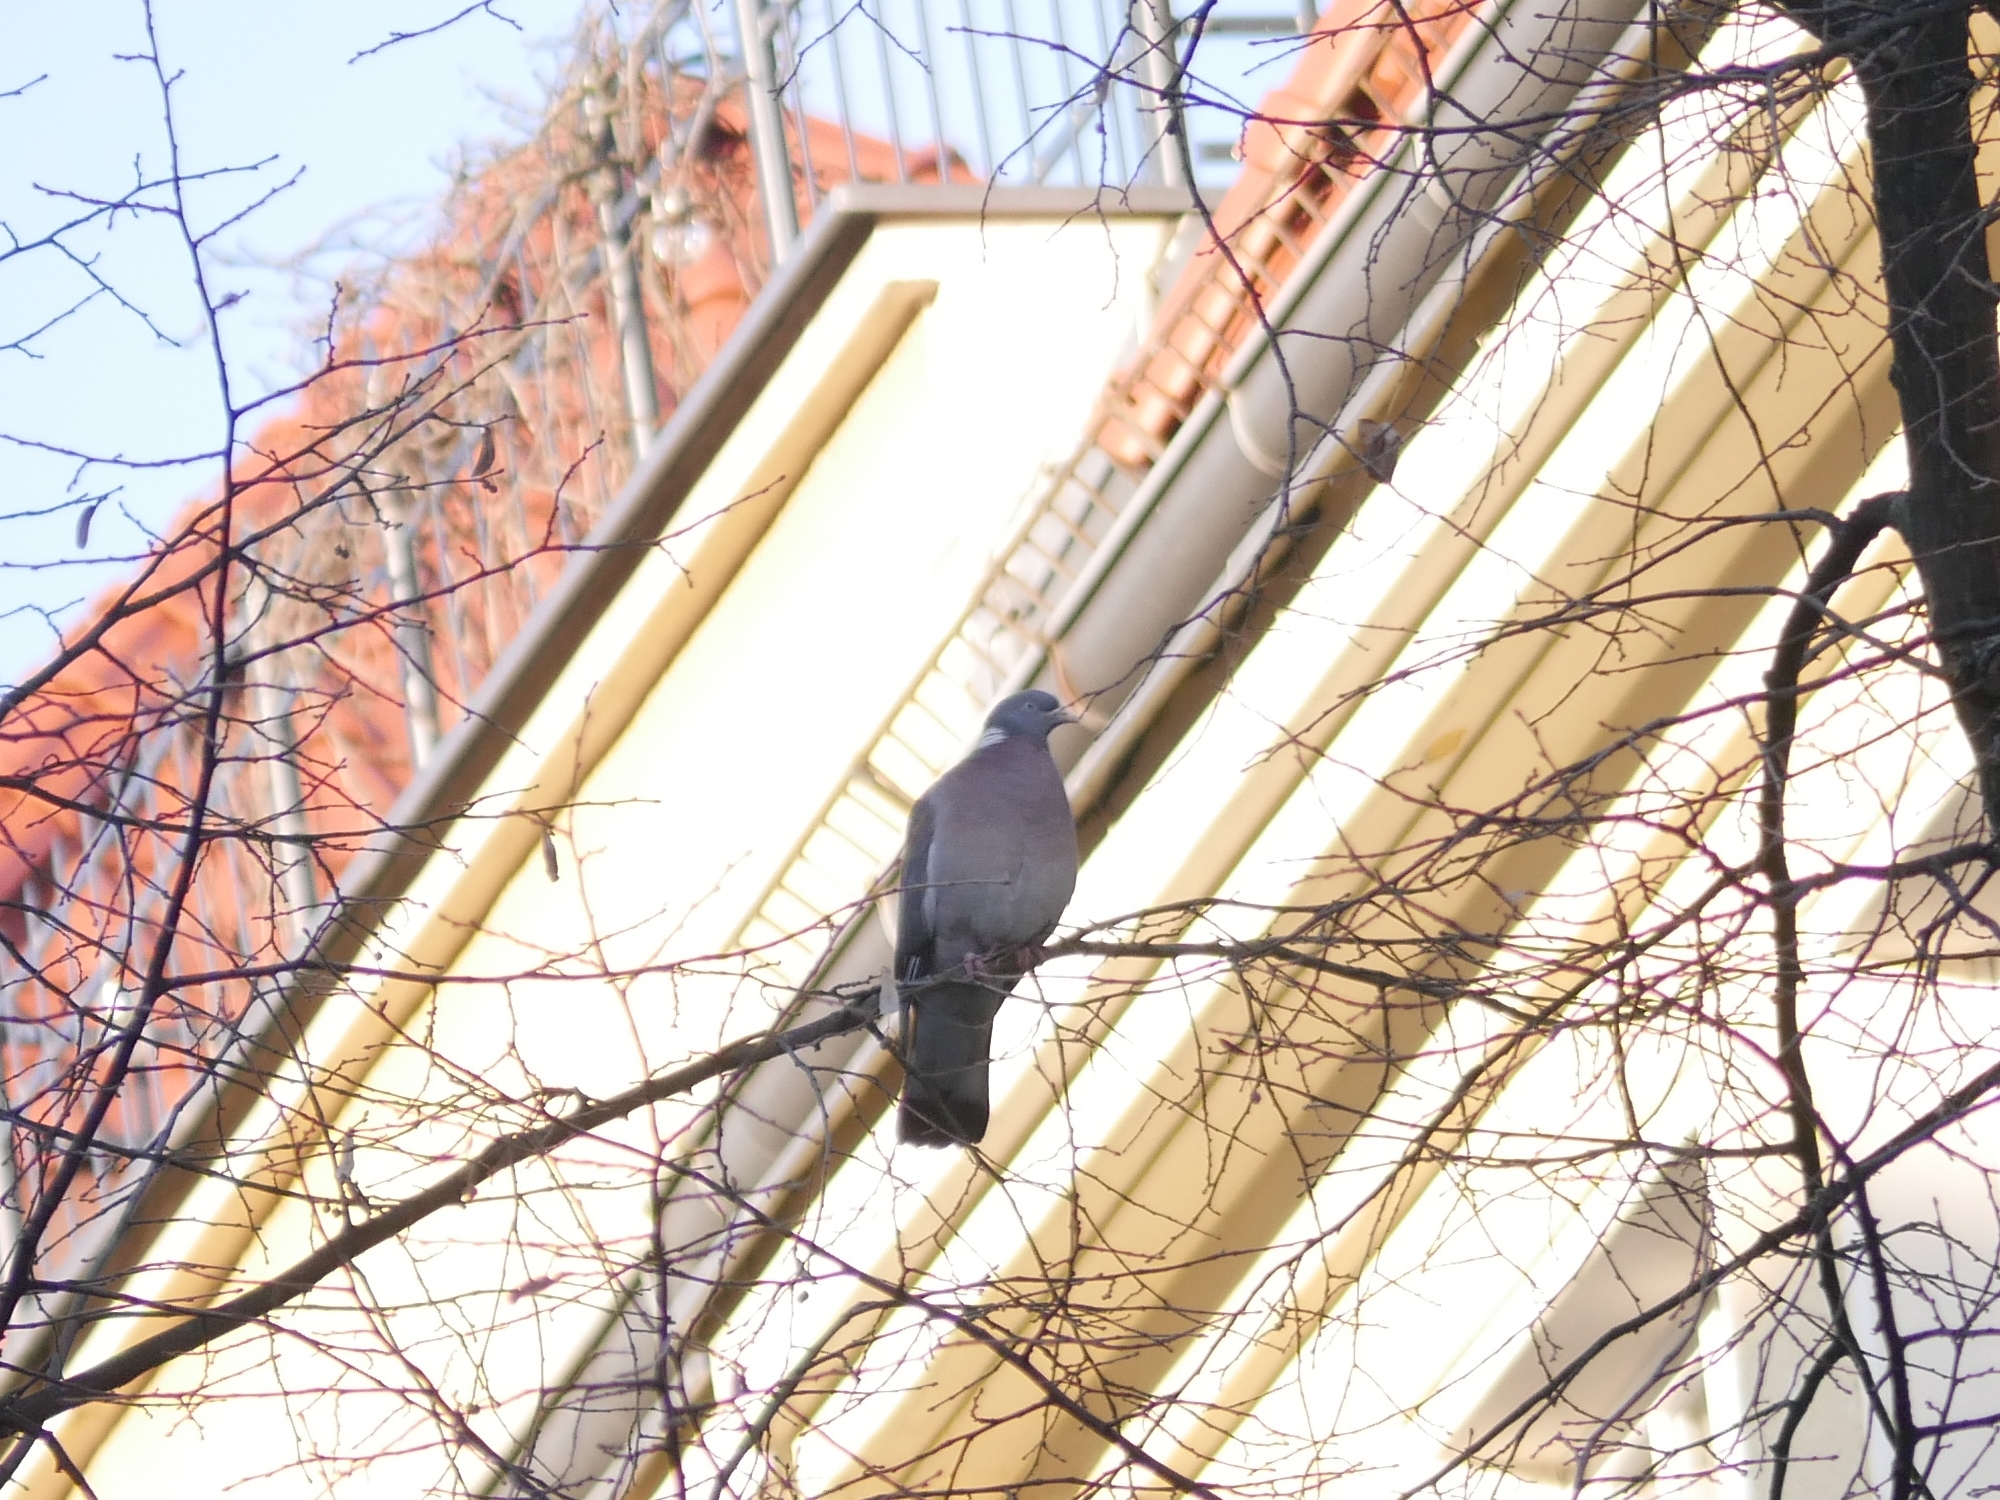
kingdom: Animalia
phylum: Chordata
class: Aves
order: Columbiformes
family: Columbidae
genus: Columba
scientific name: Columba palumbus
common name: Common wood pigeon
